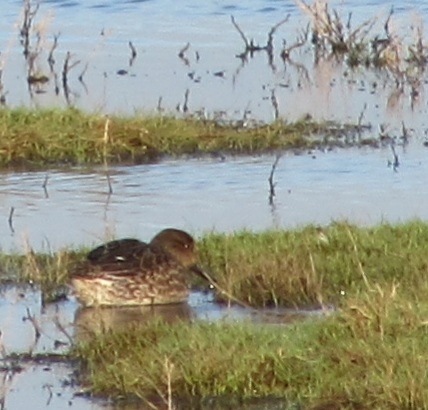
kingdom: Animalia
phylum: Chordata
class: Aves
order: Anseriformes
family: Anatidae
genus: Anas
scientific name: Anas crecca
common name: Eurasian teal
